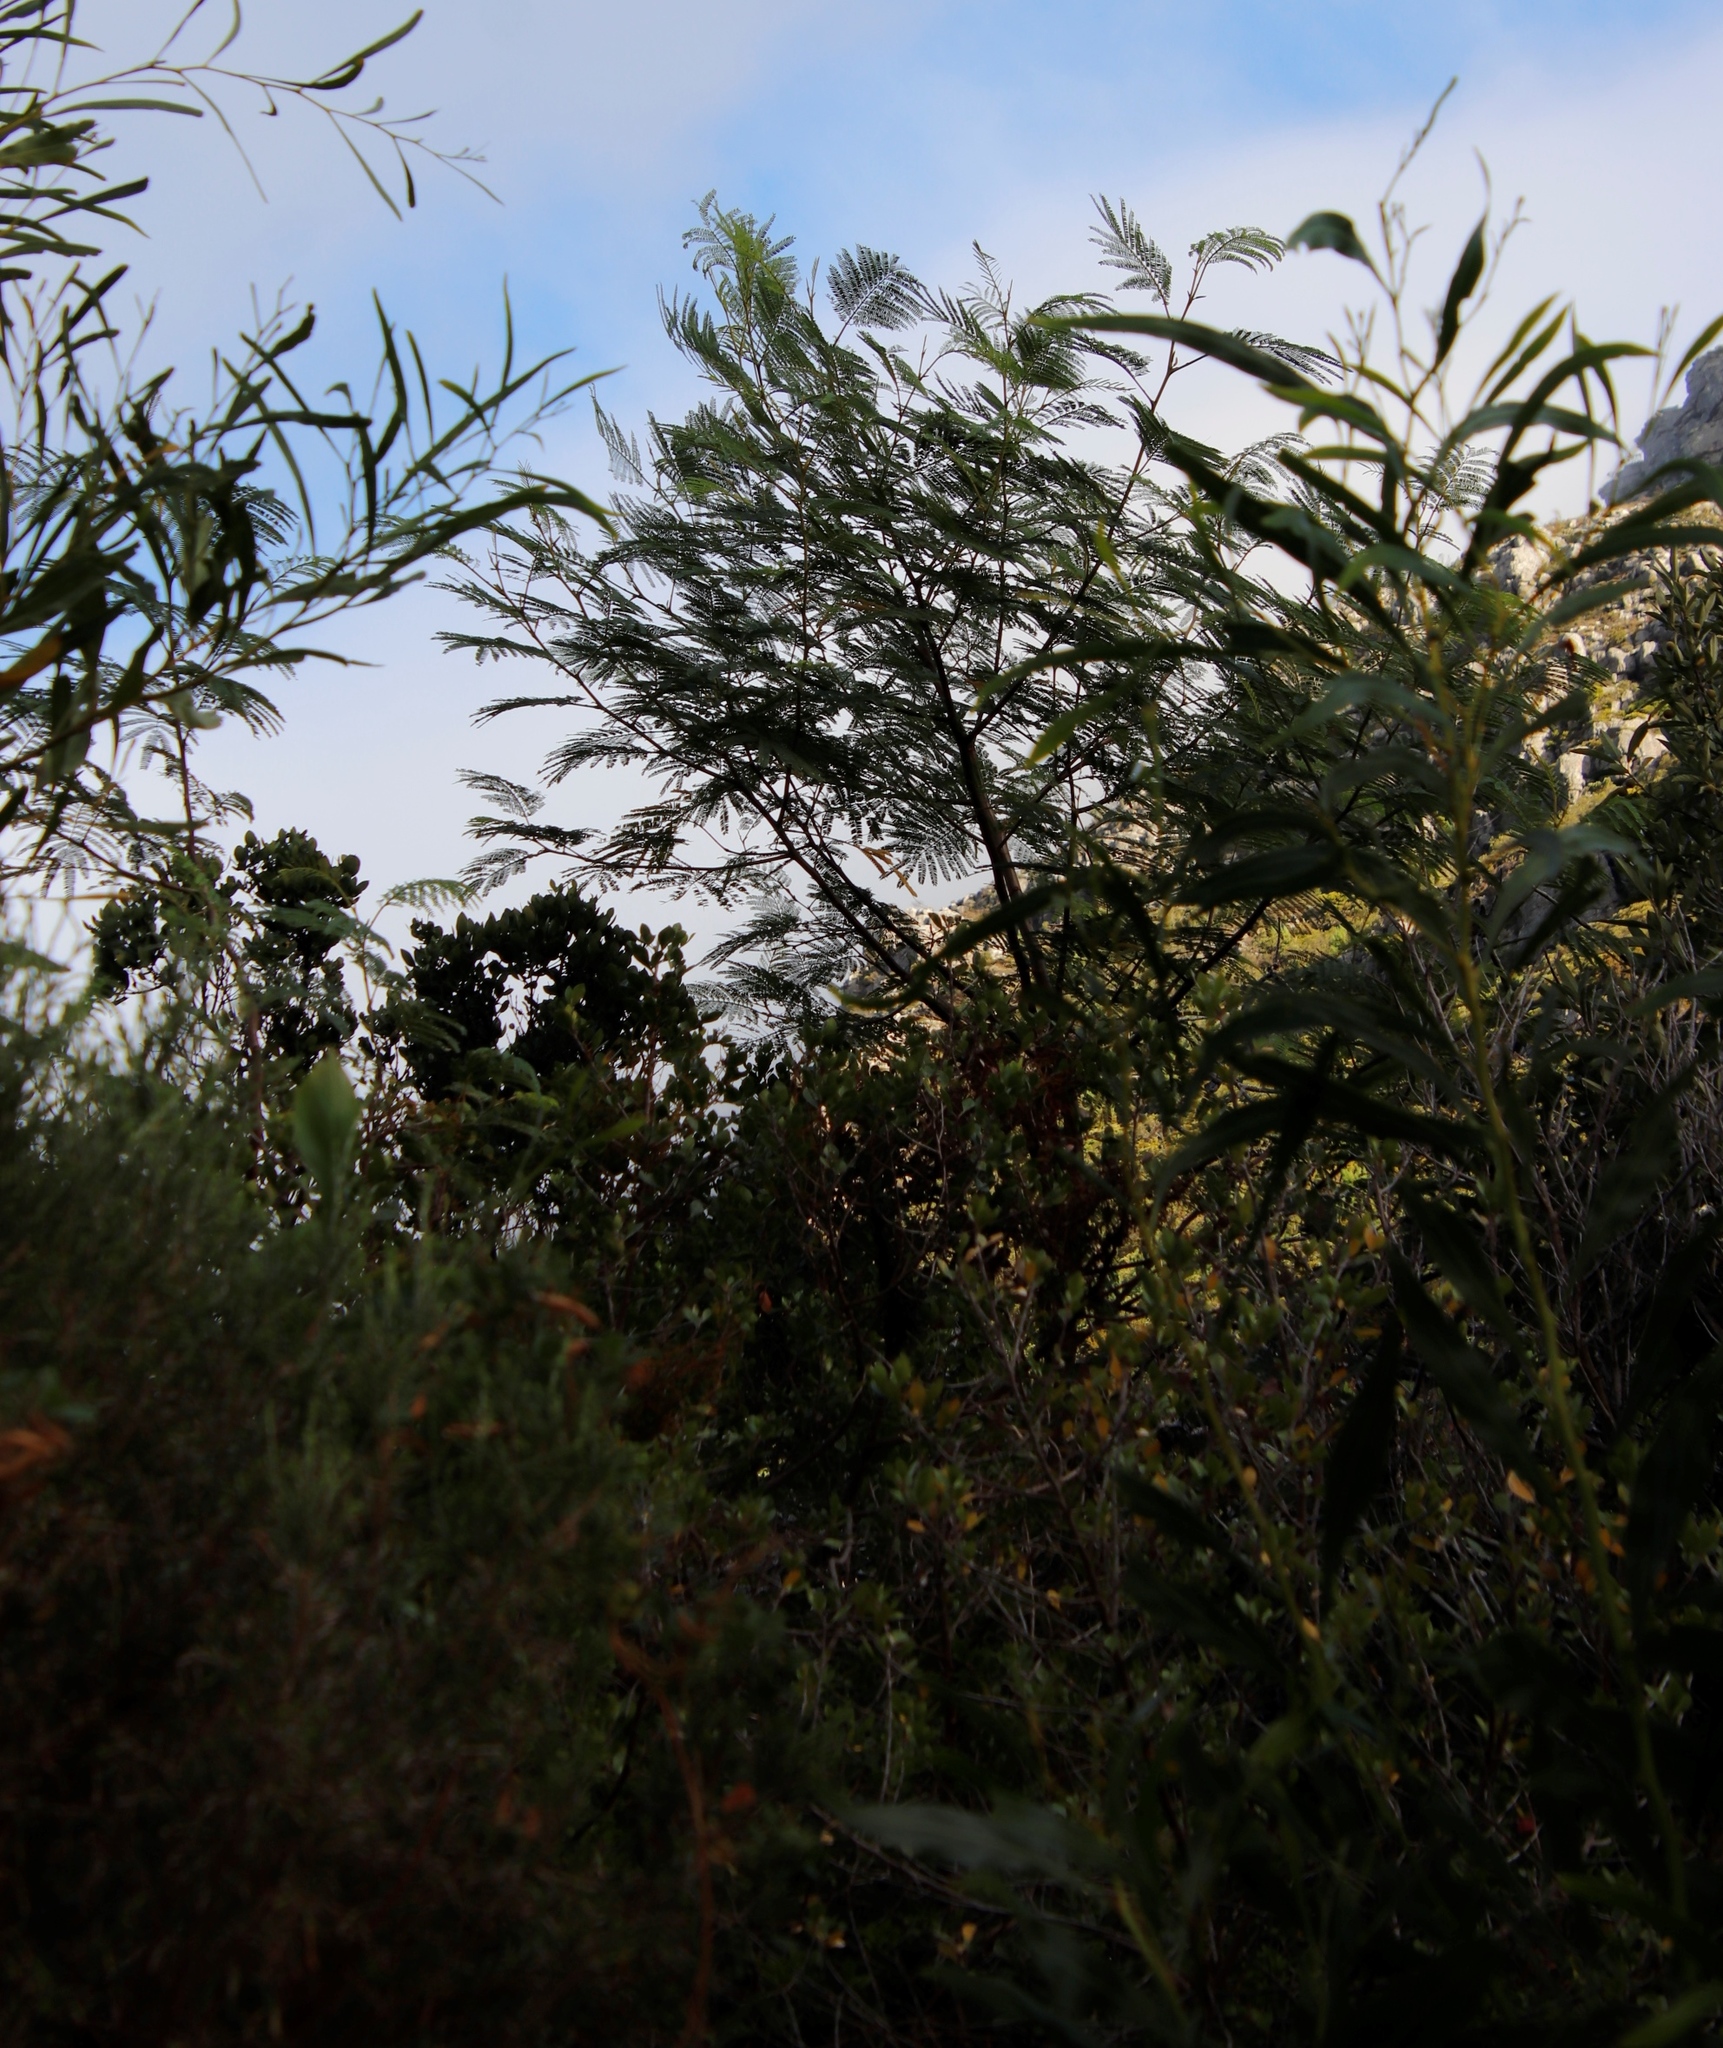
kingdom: Plantae
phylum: Tracheophyta
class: Magnoliopsida
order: Fabales
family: Fabaceae
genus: Acacia
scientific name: Acacia mearnsii
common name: Black wattle
